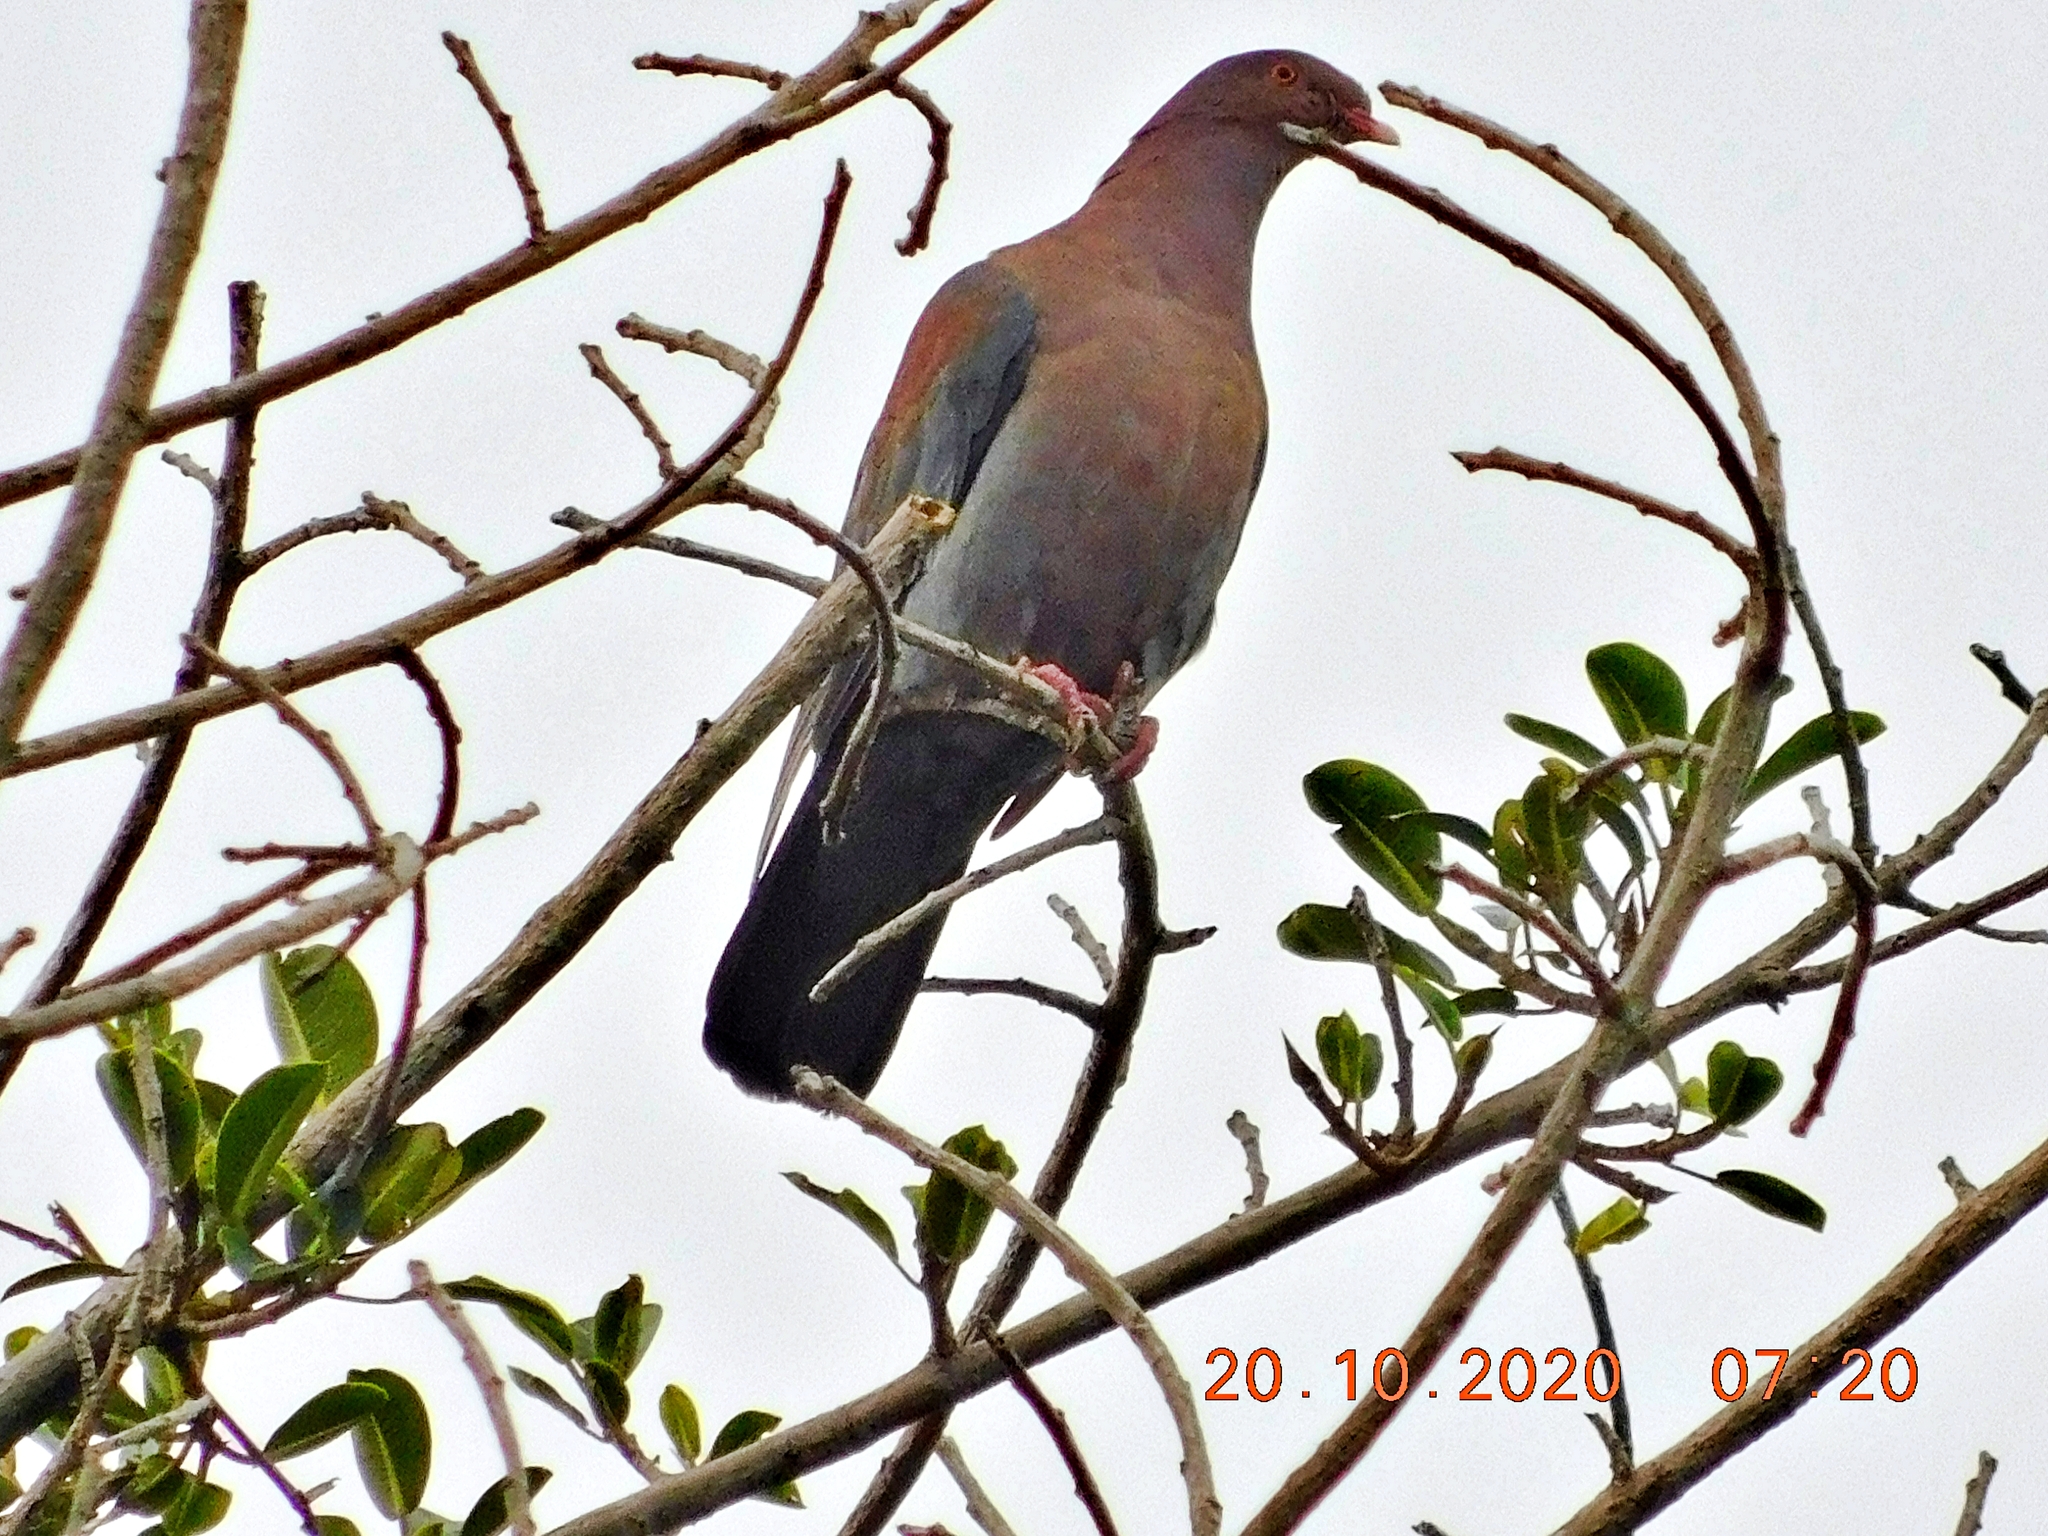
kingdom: Animalia
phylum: Chordata
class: Aves
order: Columbiformes
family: Columbidae
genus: Patagioenas
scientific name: Patagioenas flavirostris
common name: Red-billed pigeon
